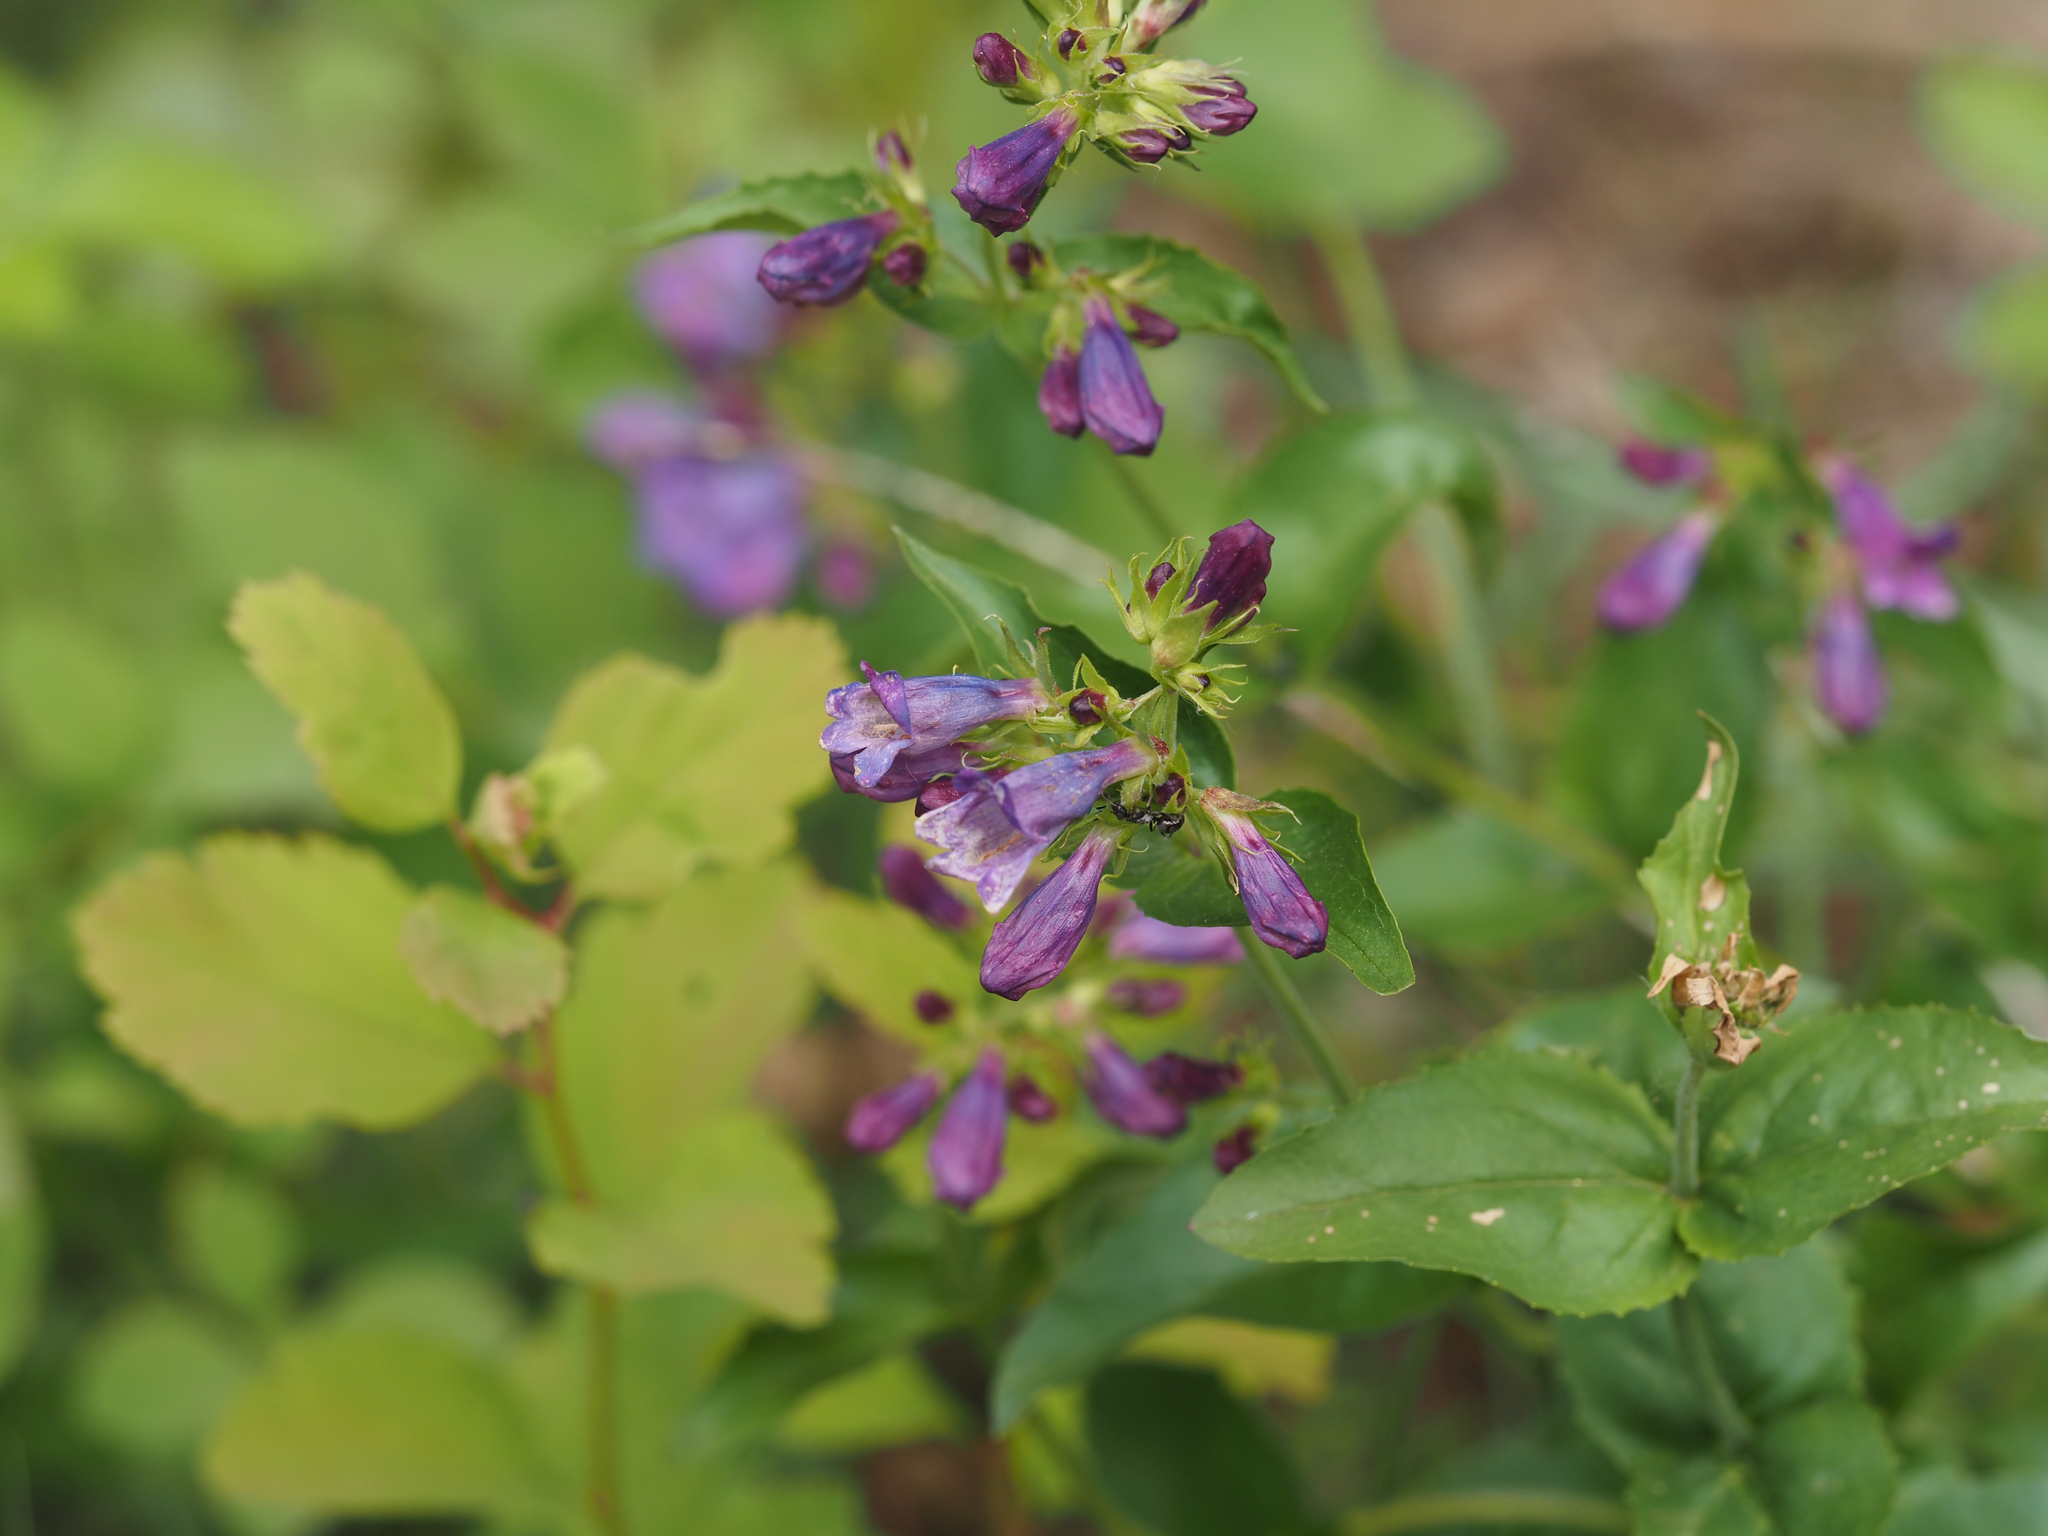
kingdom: Plantae
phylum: Tracheophyta
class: Magnoliopsida
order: Lamiales
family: Plantaginaceae
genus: Penstemon
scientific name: Penstemon serrulatus
